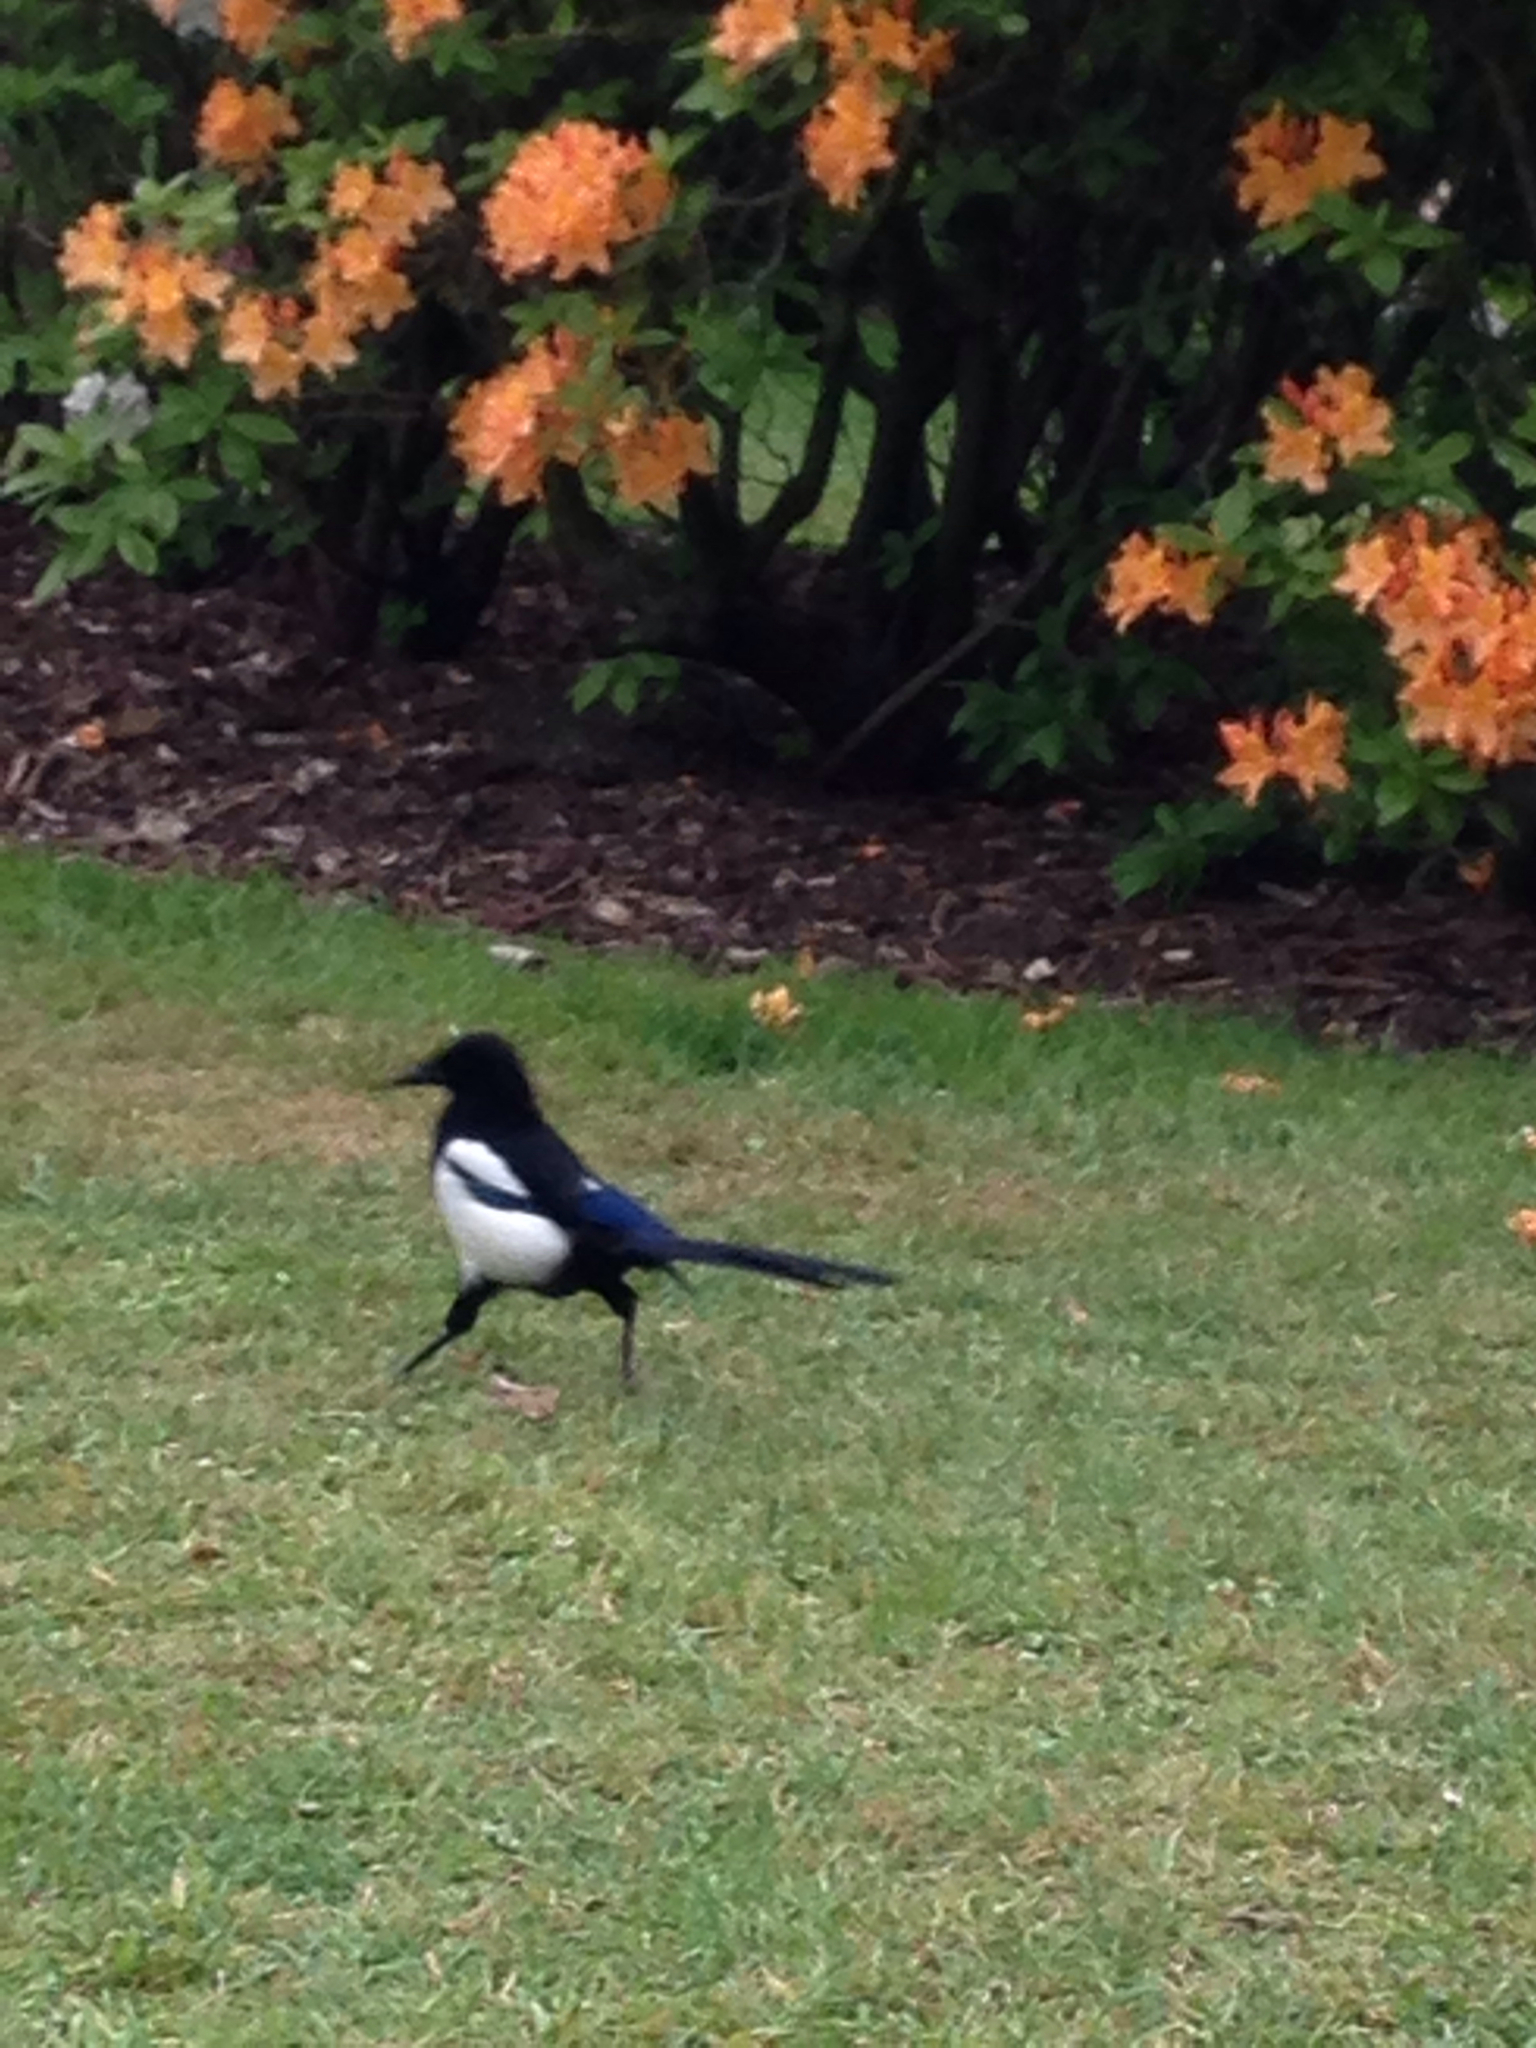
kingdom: Animalia
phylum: Chordata
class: Aves
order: Passeriformes
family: Corvidae
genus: Pica
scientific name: Pica pica
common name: Eurasian magpie
